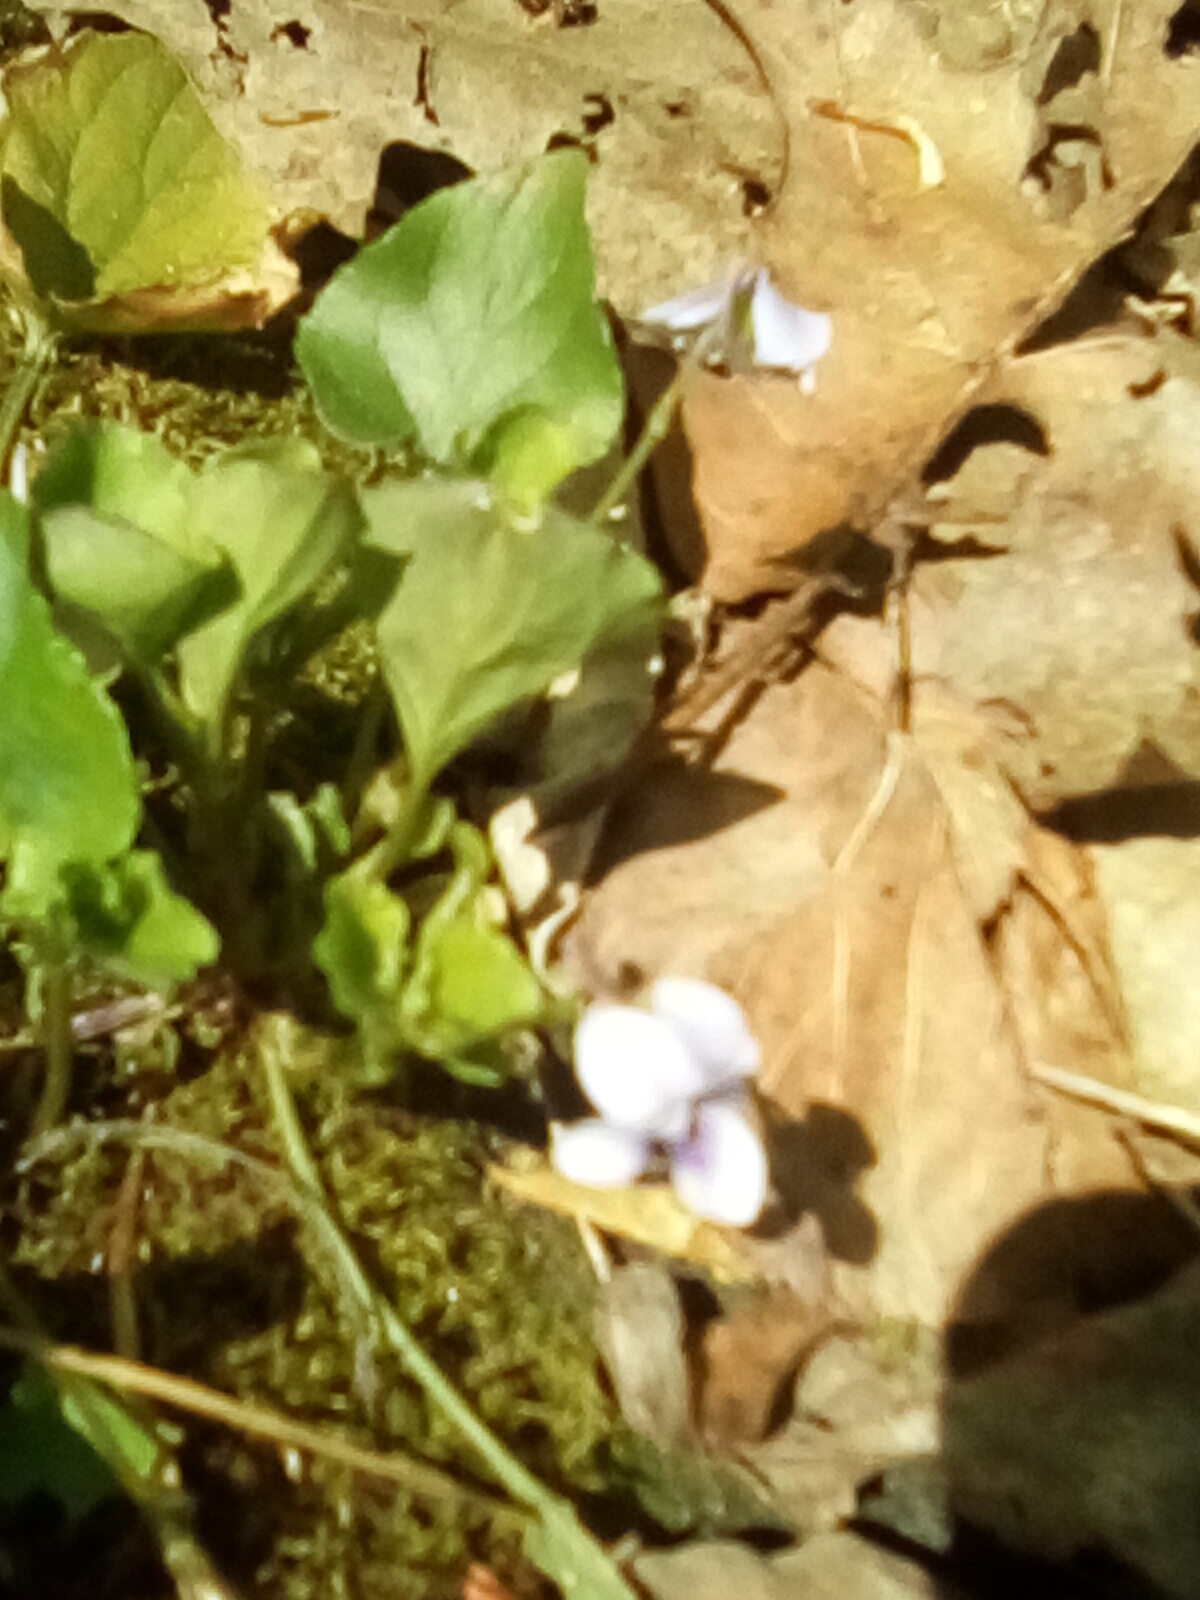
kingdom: Plantae
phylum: Tracheophyta
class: Magnoliopsida
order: Malpighiales
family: Violaceae
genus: Viola
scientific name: Viola rostrata
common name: Long-spur violet
